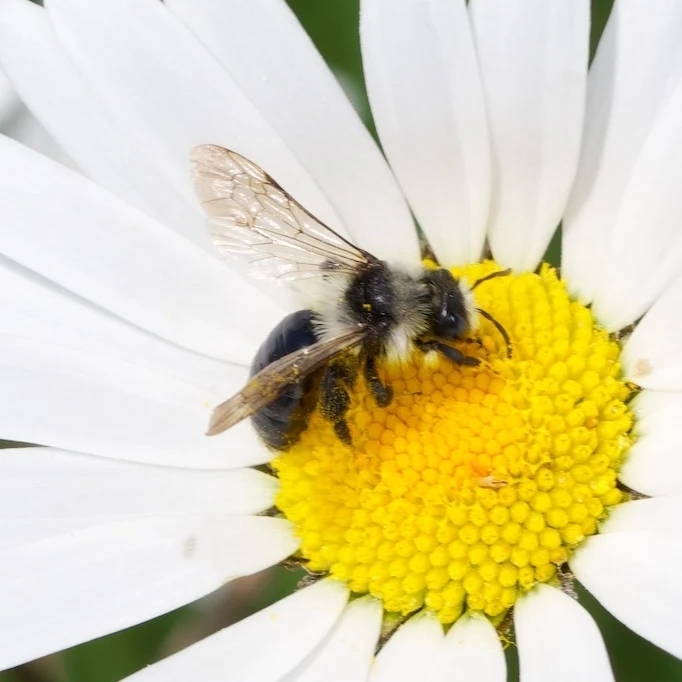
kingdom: Animalia
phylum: Arthropoda
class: Insecta
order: Hymenoptera
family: Andrenidae
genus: Andrena
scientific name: Andrena cineraria
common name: Ashy mining bee
